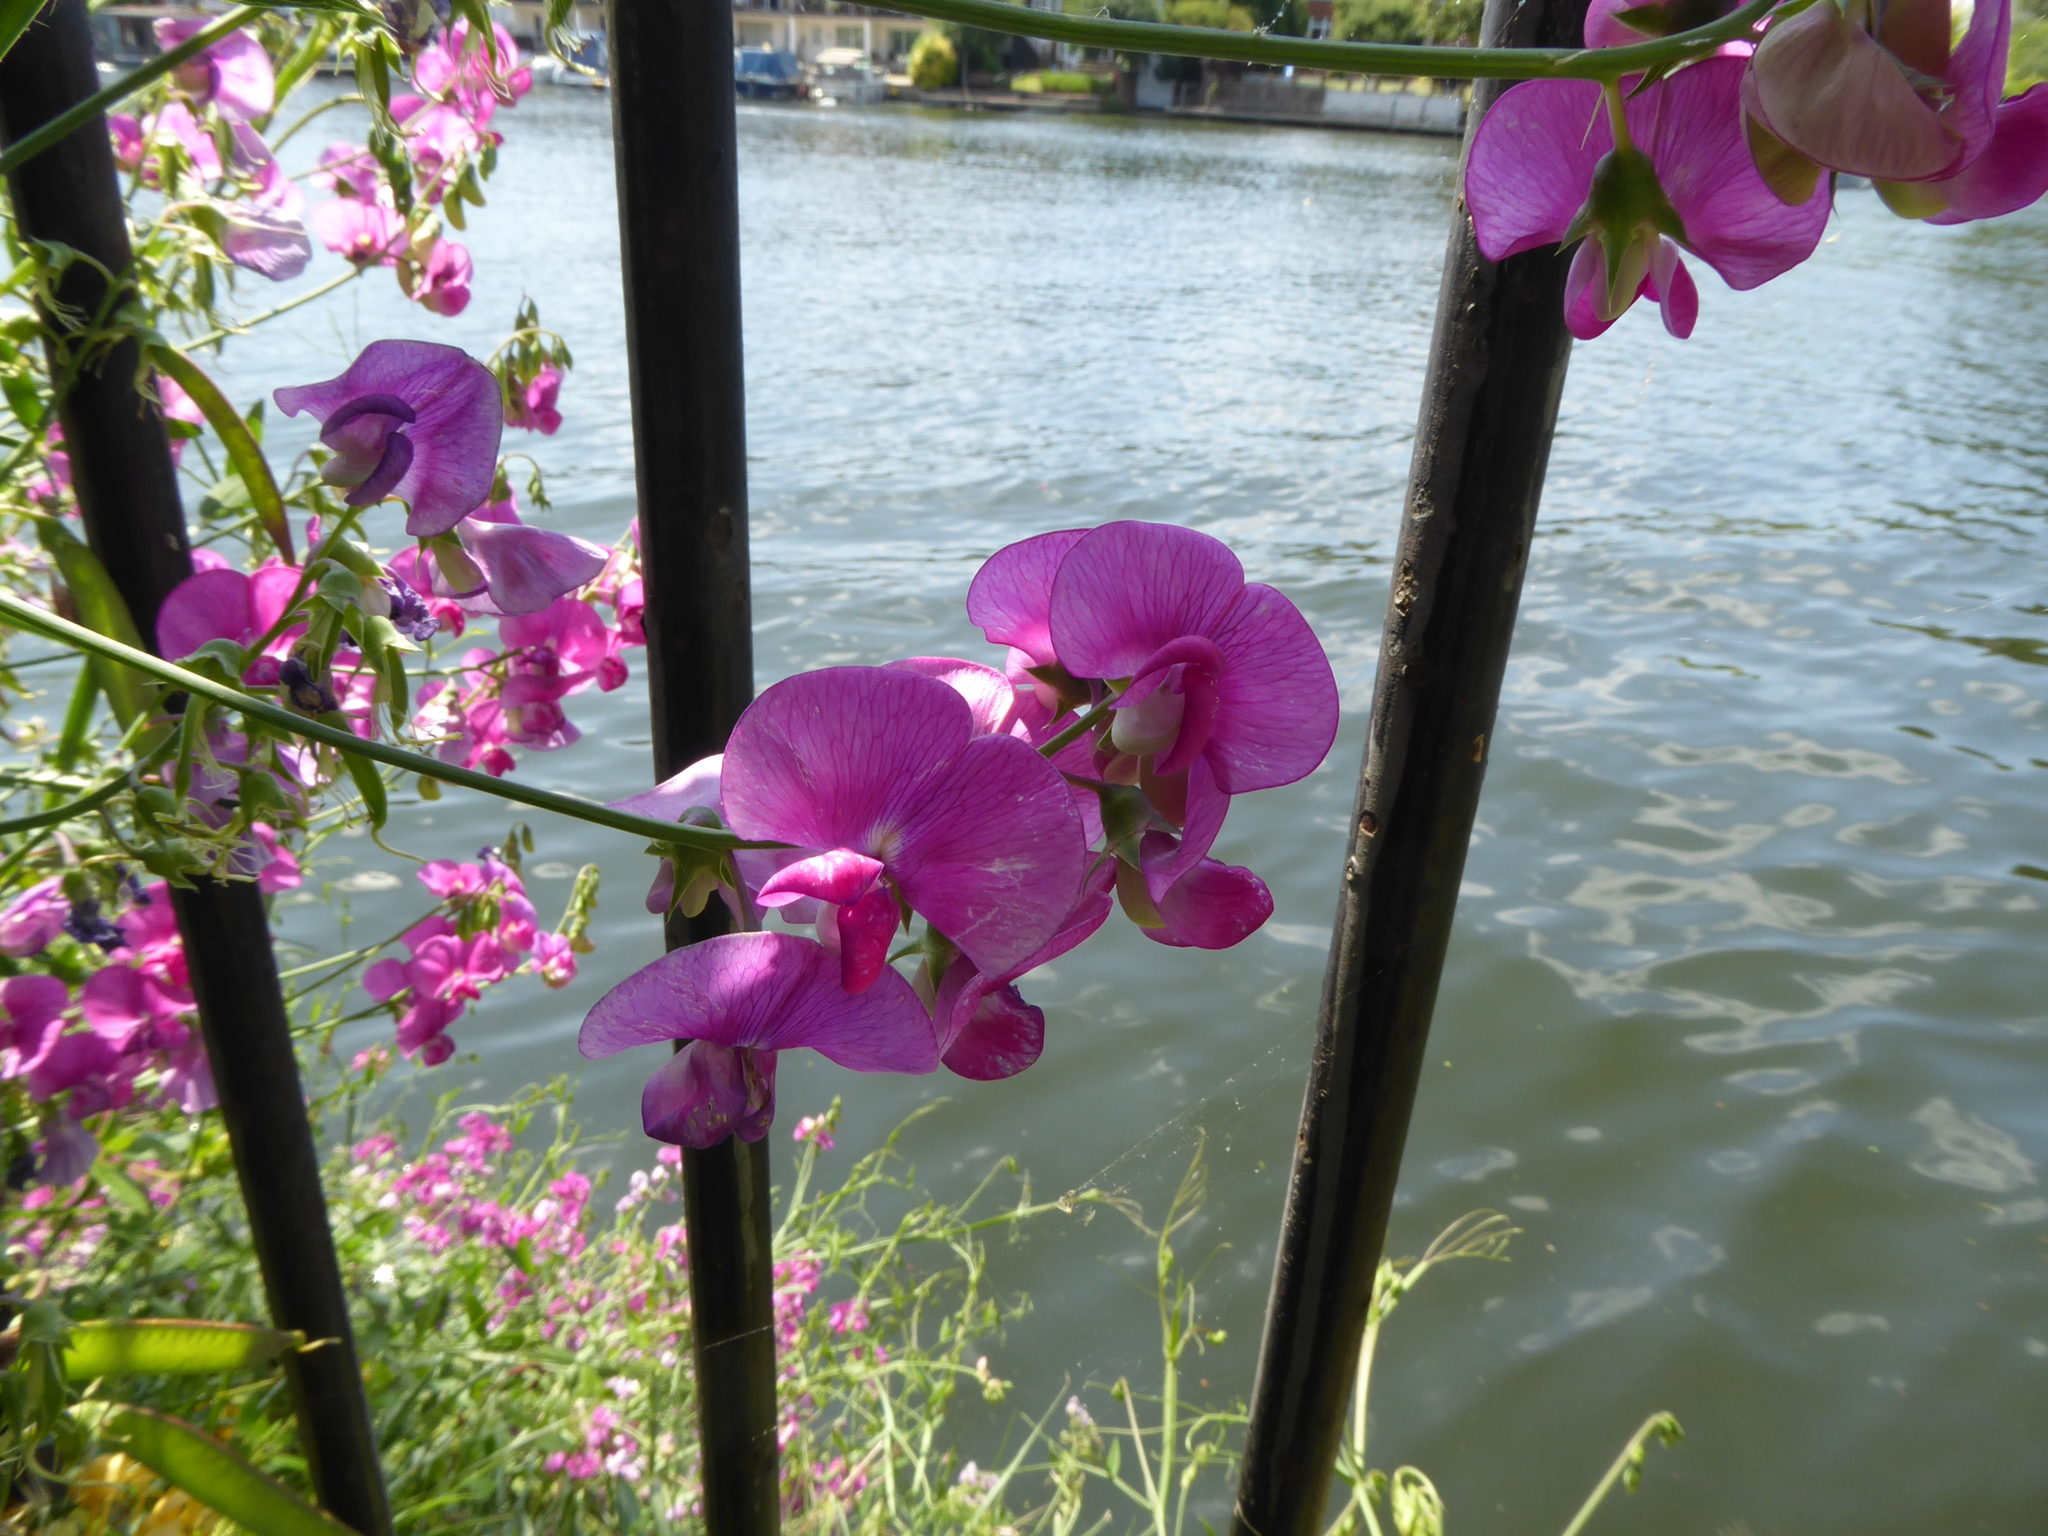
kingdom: Plantae
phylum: Tracheophyta
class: Magnoliopsida
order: Fabales
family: Fabaceae
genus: Lathyrus
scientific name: Lathyrus latifolius
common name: Perennial pea
